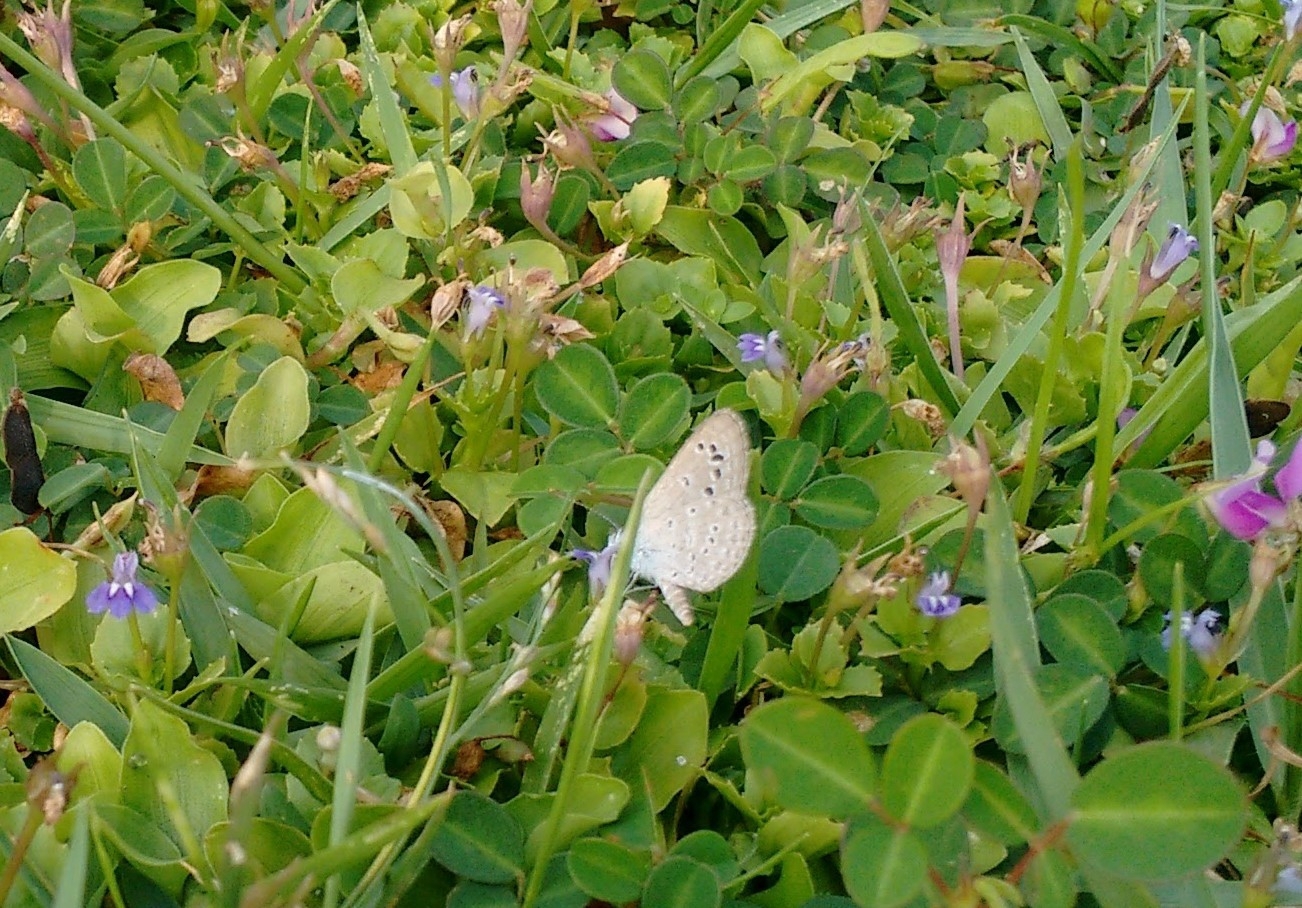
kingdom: Animalia
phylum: Arthropoda
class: Insecta
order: Lepidoptera
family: Lycaenidae
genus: Zizina
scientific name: Zizina otis
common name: Lesser grass blue
